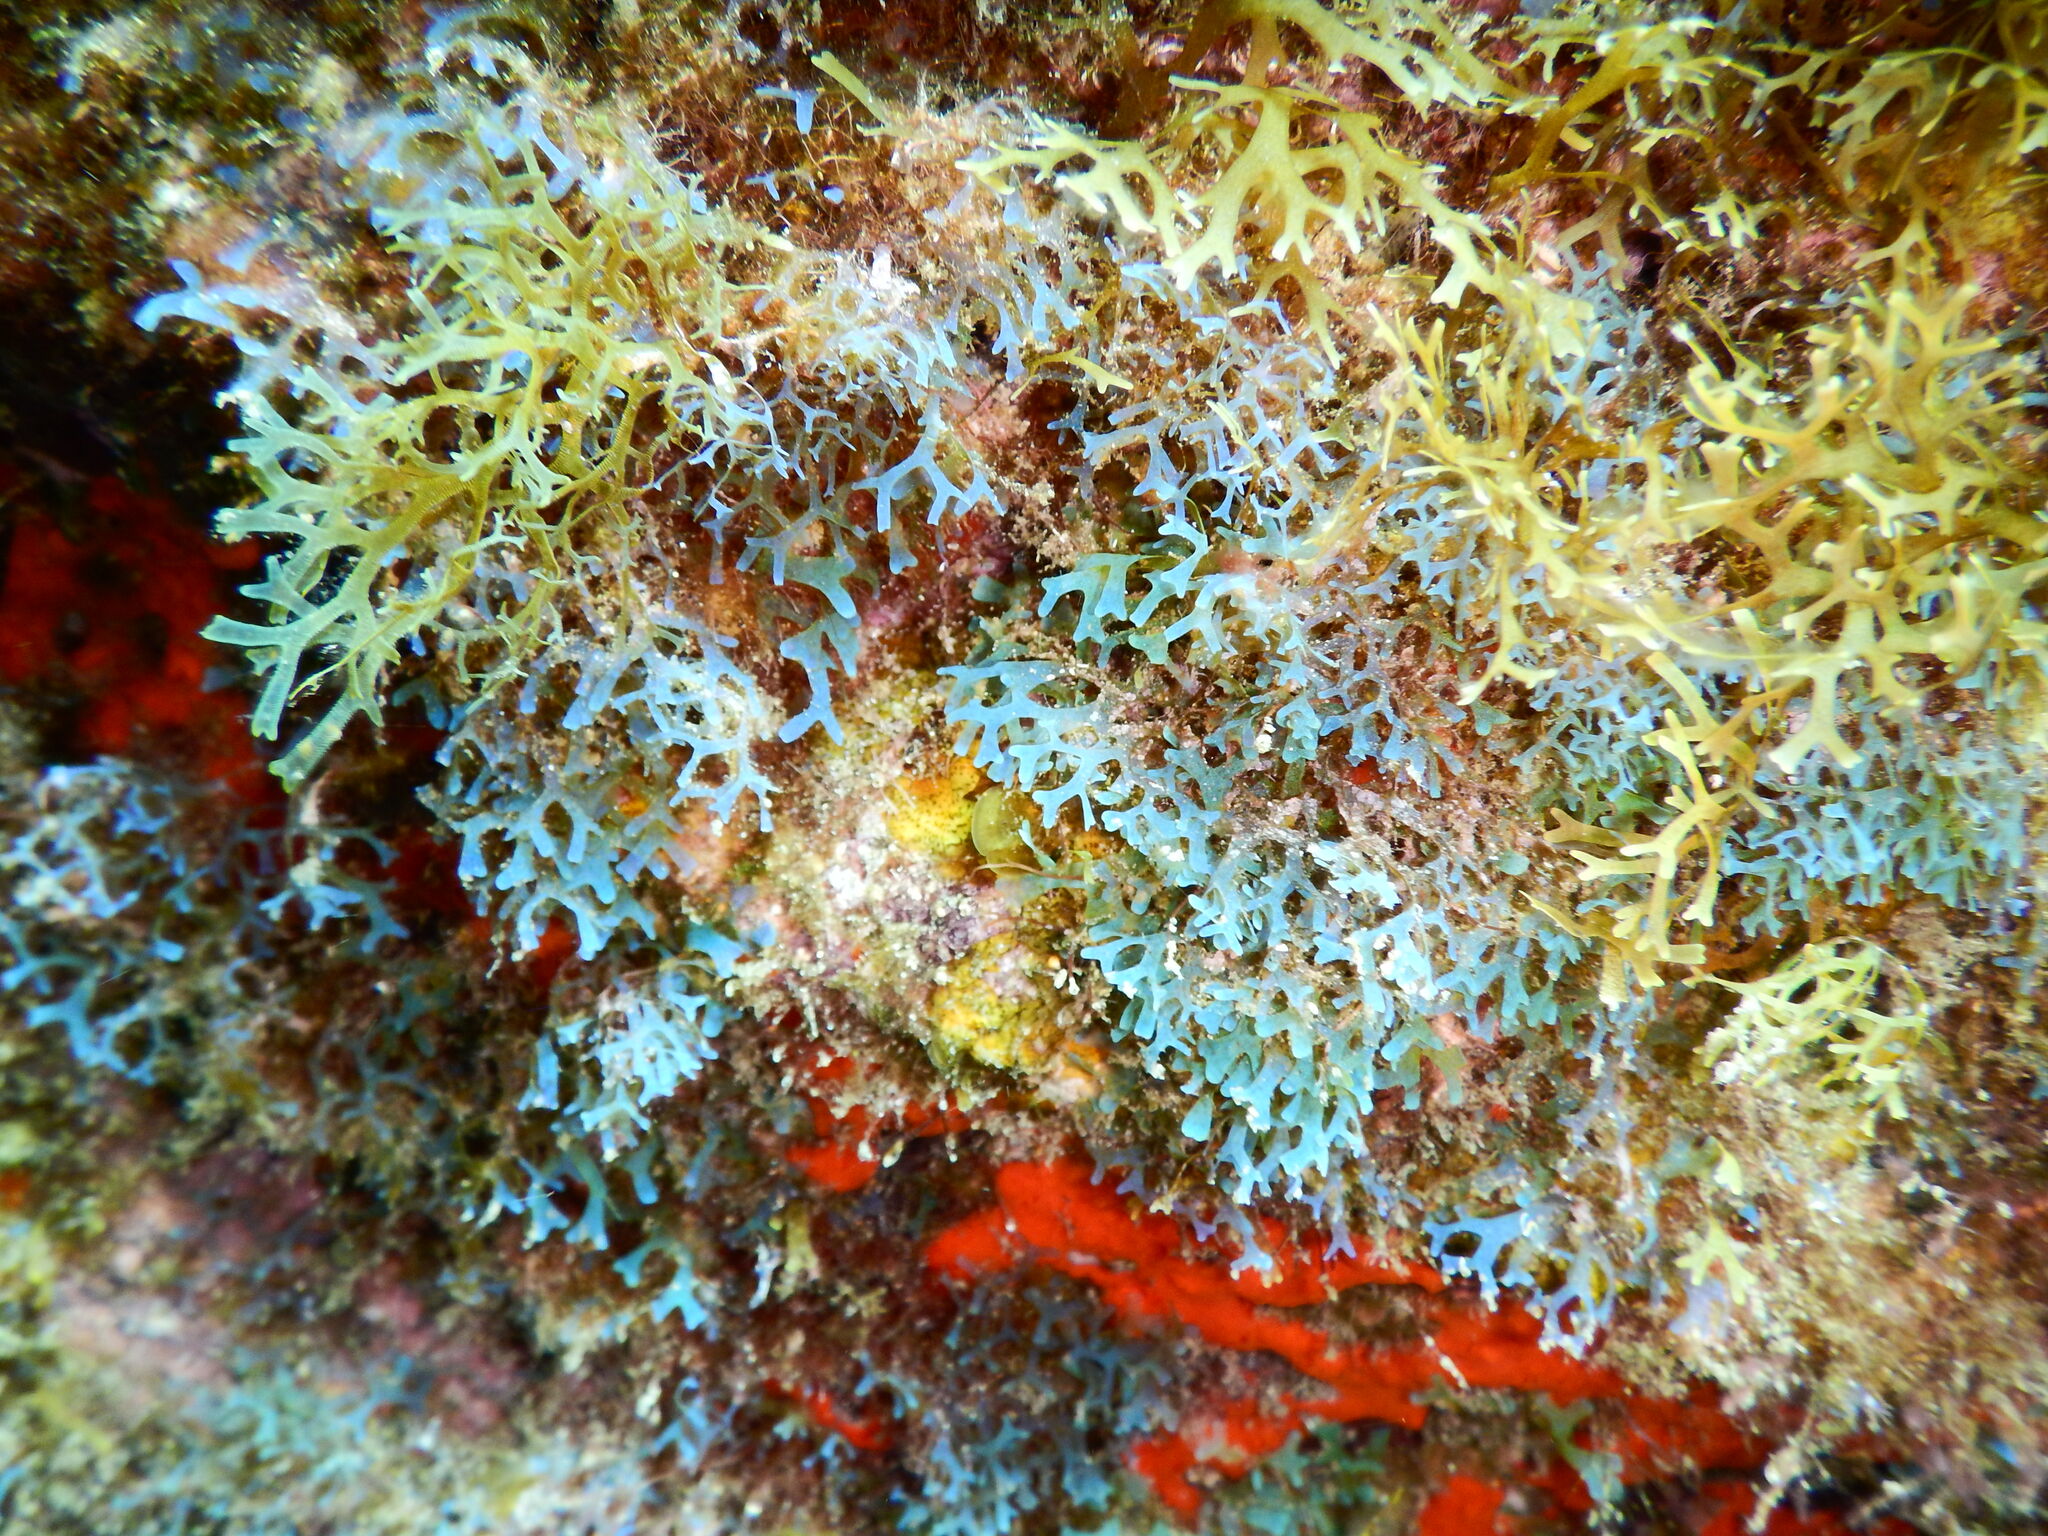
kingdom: Chromista
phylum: Ochrophyta
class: Phaeophyceae
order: Dictyotales
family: Dictyotaceae
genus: Dictyota
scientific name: Dictyota dichotoma
